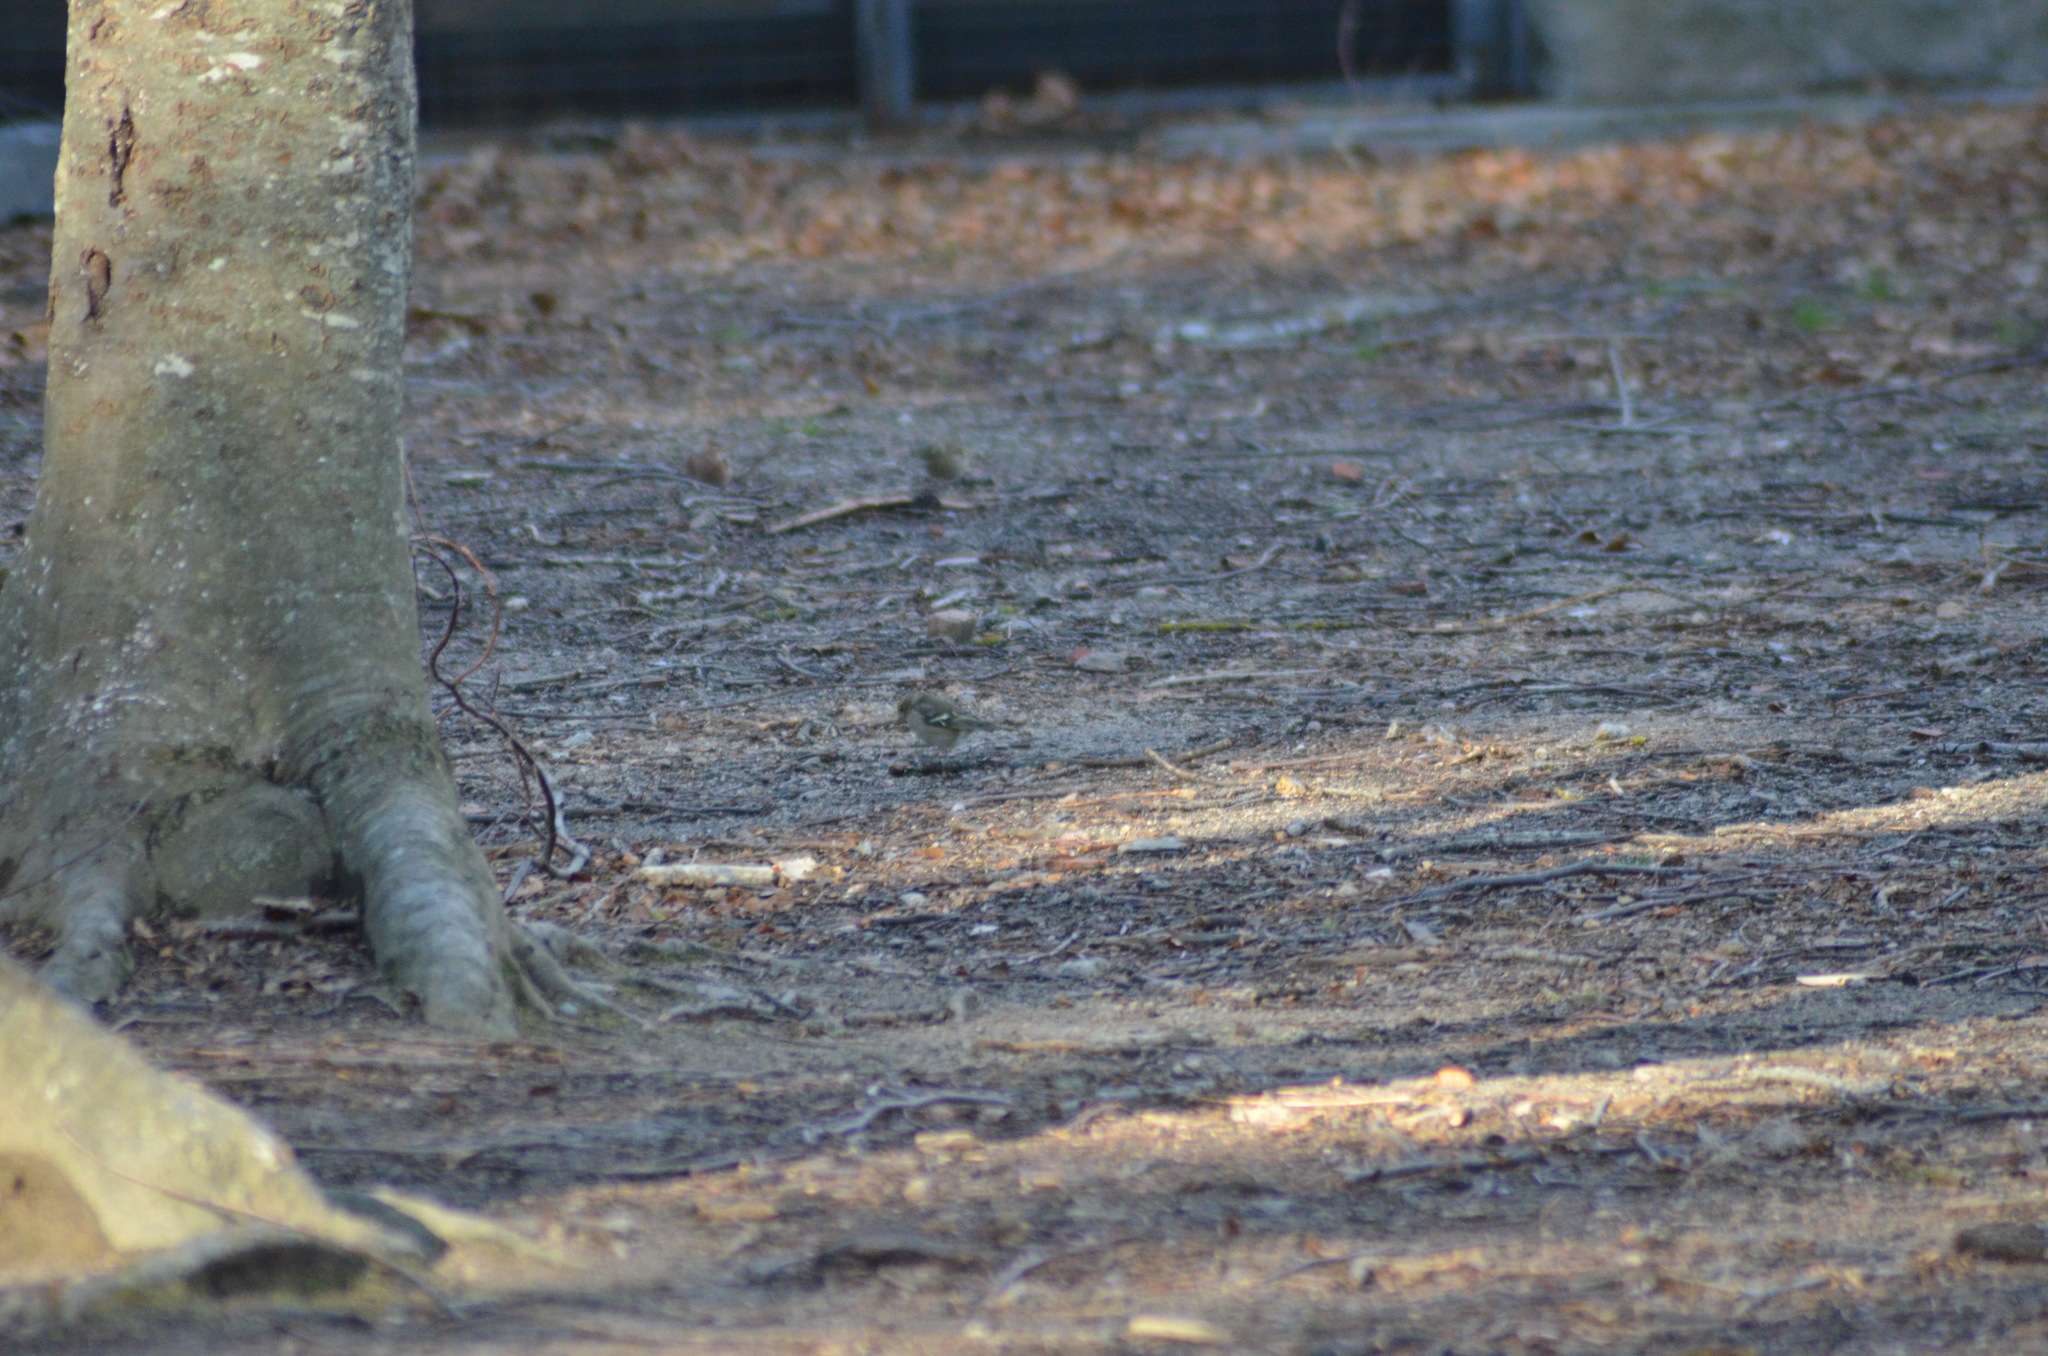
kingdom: Animalia
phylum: Chordata
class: Aves
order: Passeriformes
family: Fringillidae
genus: Fringilla
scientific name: Fringilla coelebs
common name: Common chaffinch
